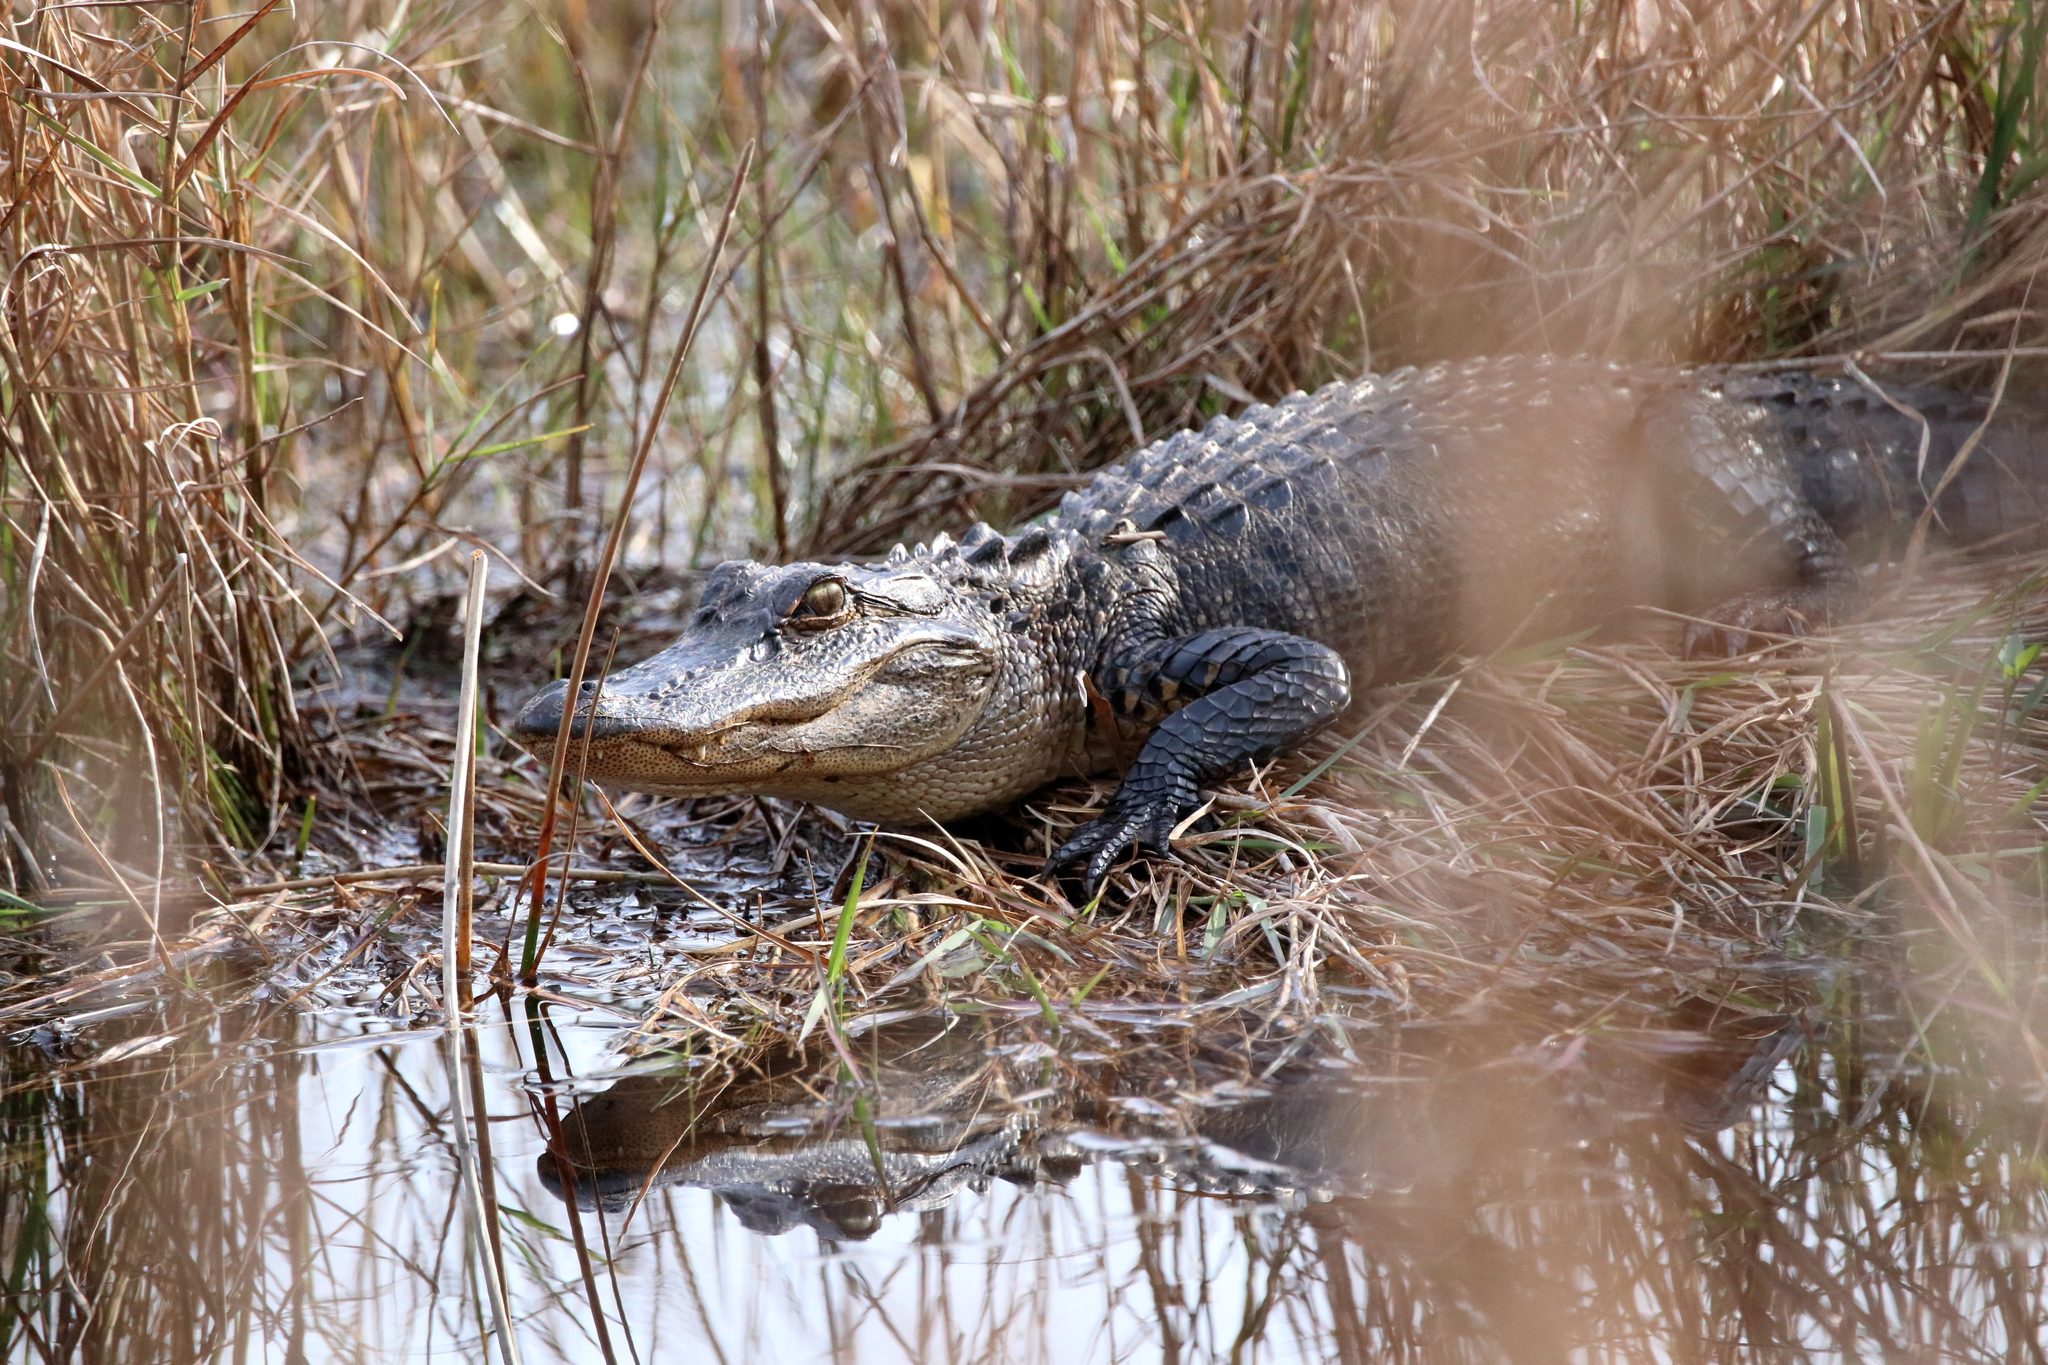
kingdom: Animalia
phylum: Chordata
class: Crocodylia
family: Alligatoridae
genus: Alligator
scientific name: Alligator mississippiensis
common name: American alligator
